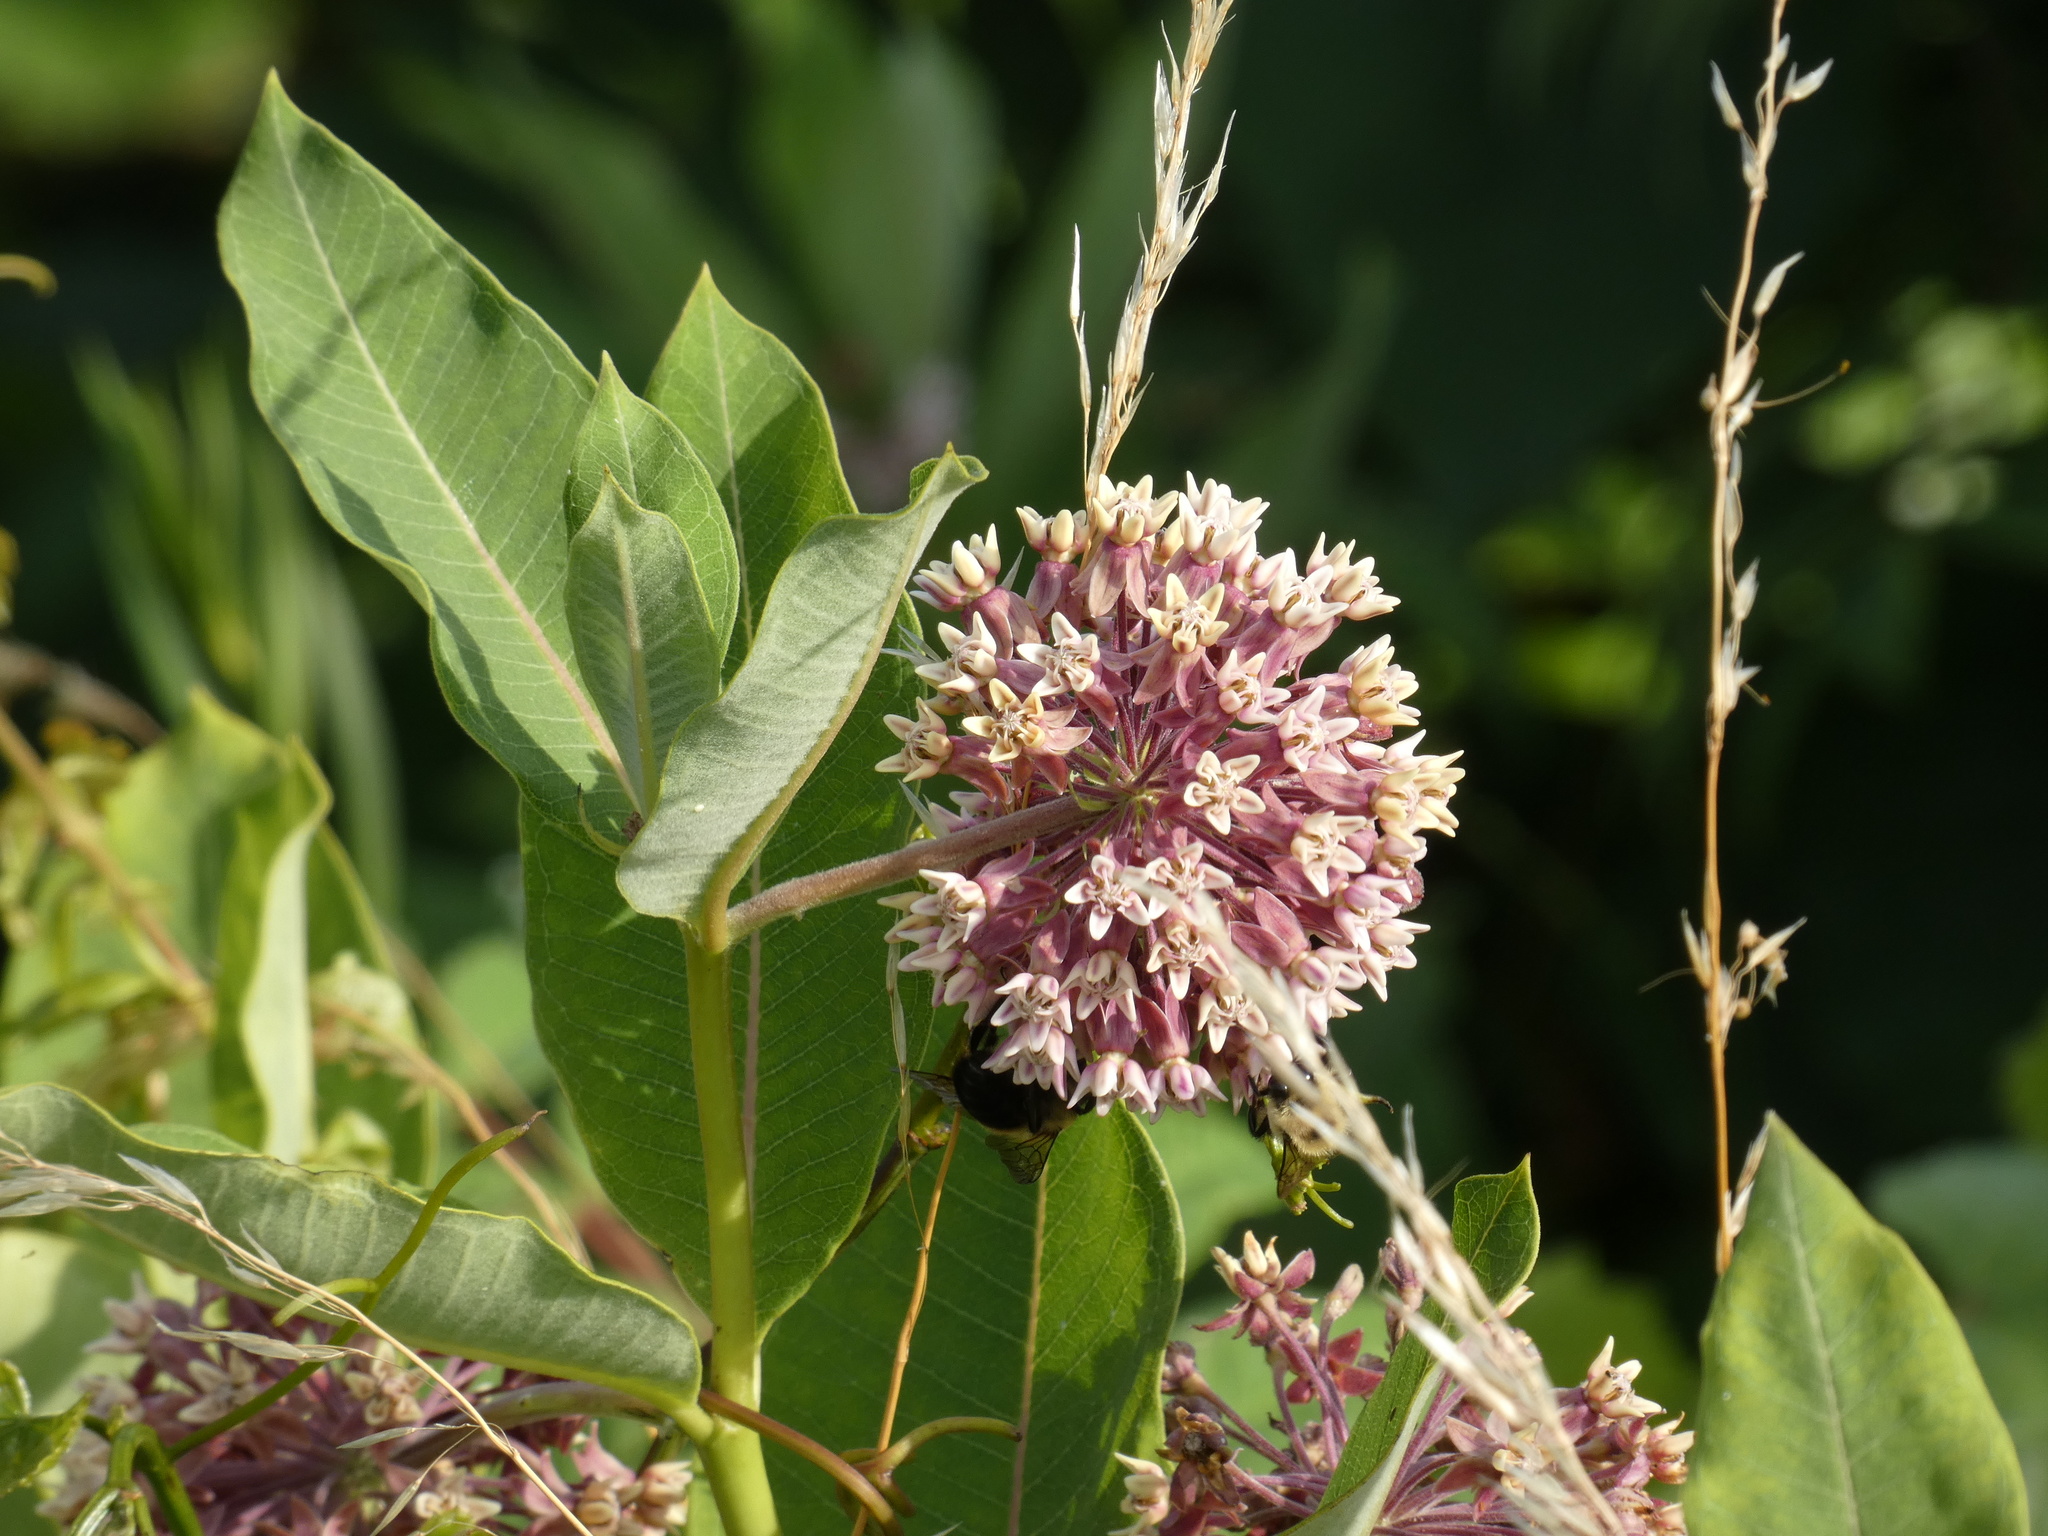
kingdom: Plantae
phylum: Tracheophyta
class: Magnoliopsida
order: Gentianales
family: Apocynaceae
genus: Asclepias
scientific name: Asclepias syriaca
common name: Common milkweed
